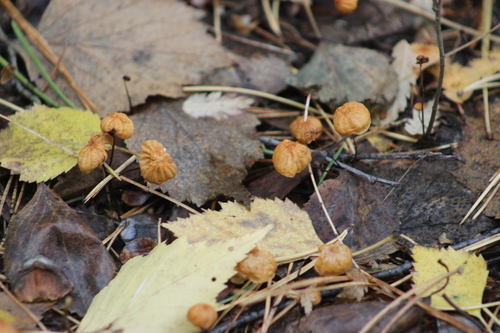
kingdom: Fungi
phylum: Basidiomycota
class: Agaricomycetes
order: Agaricales
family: Marasmiaceae
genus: Marasmius
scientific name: Marasmius siccus
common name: Orange pinwheel
